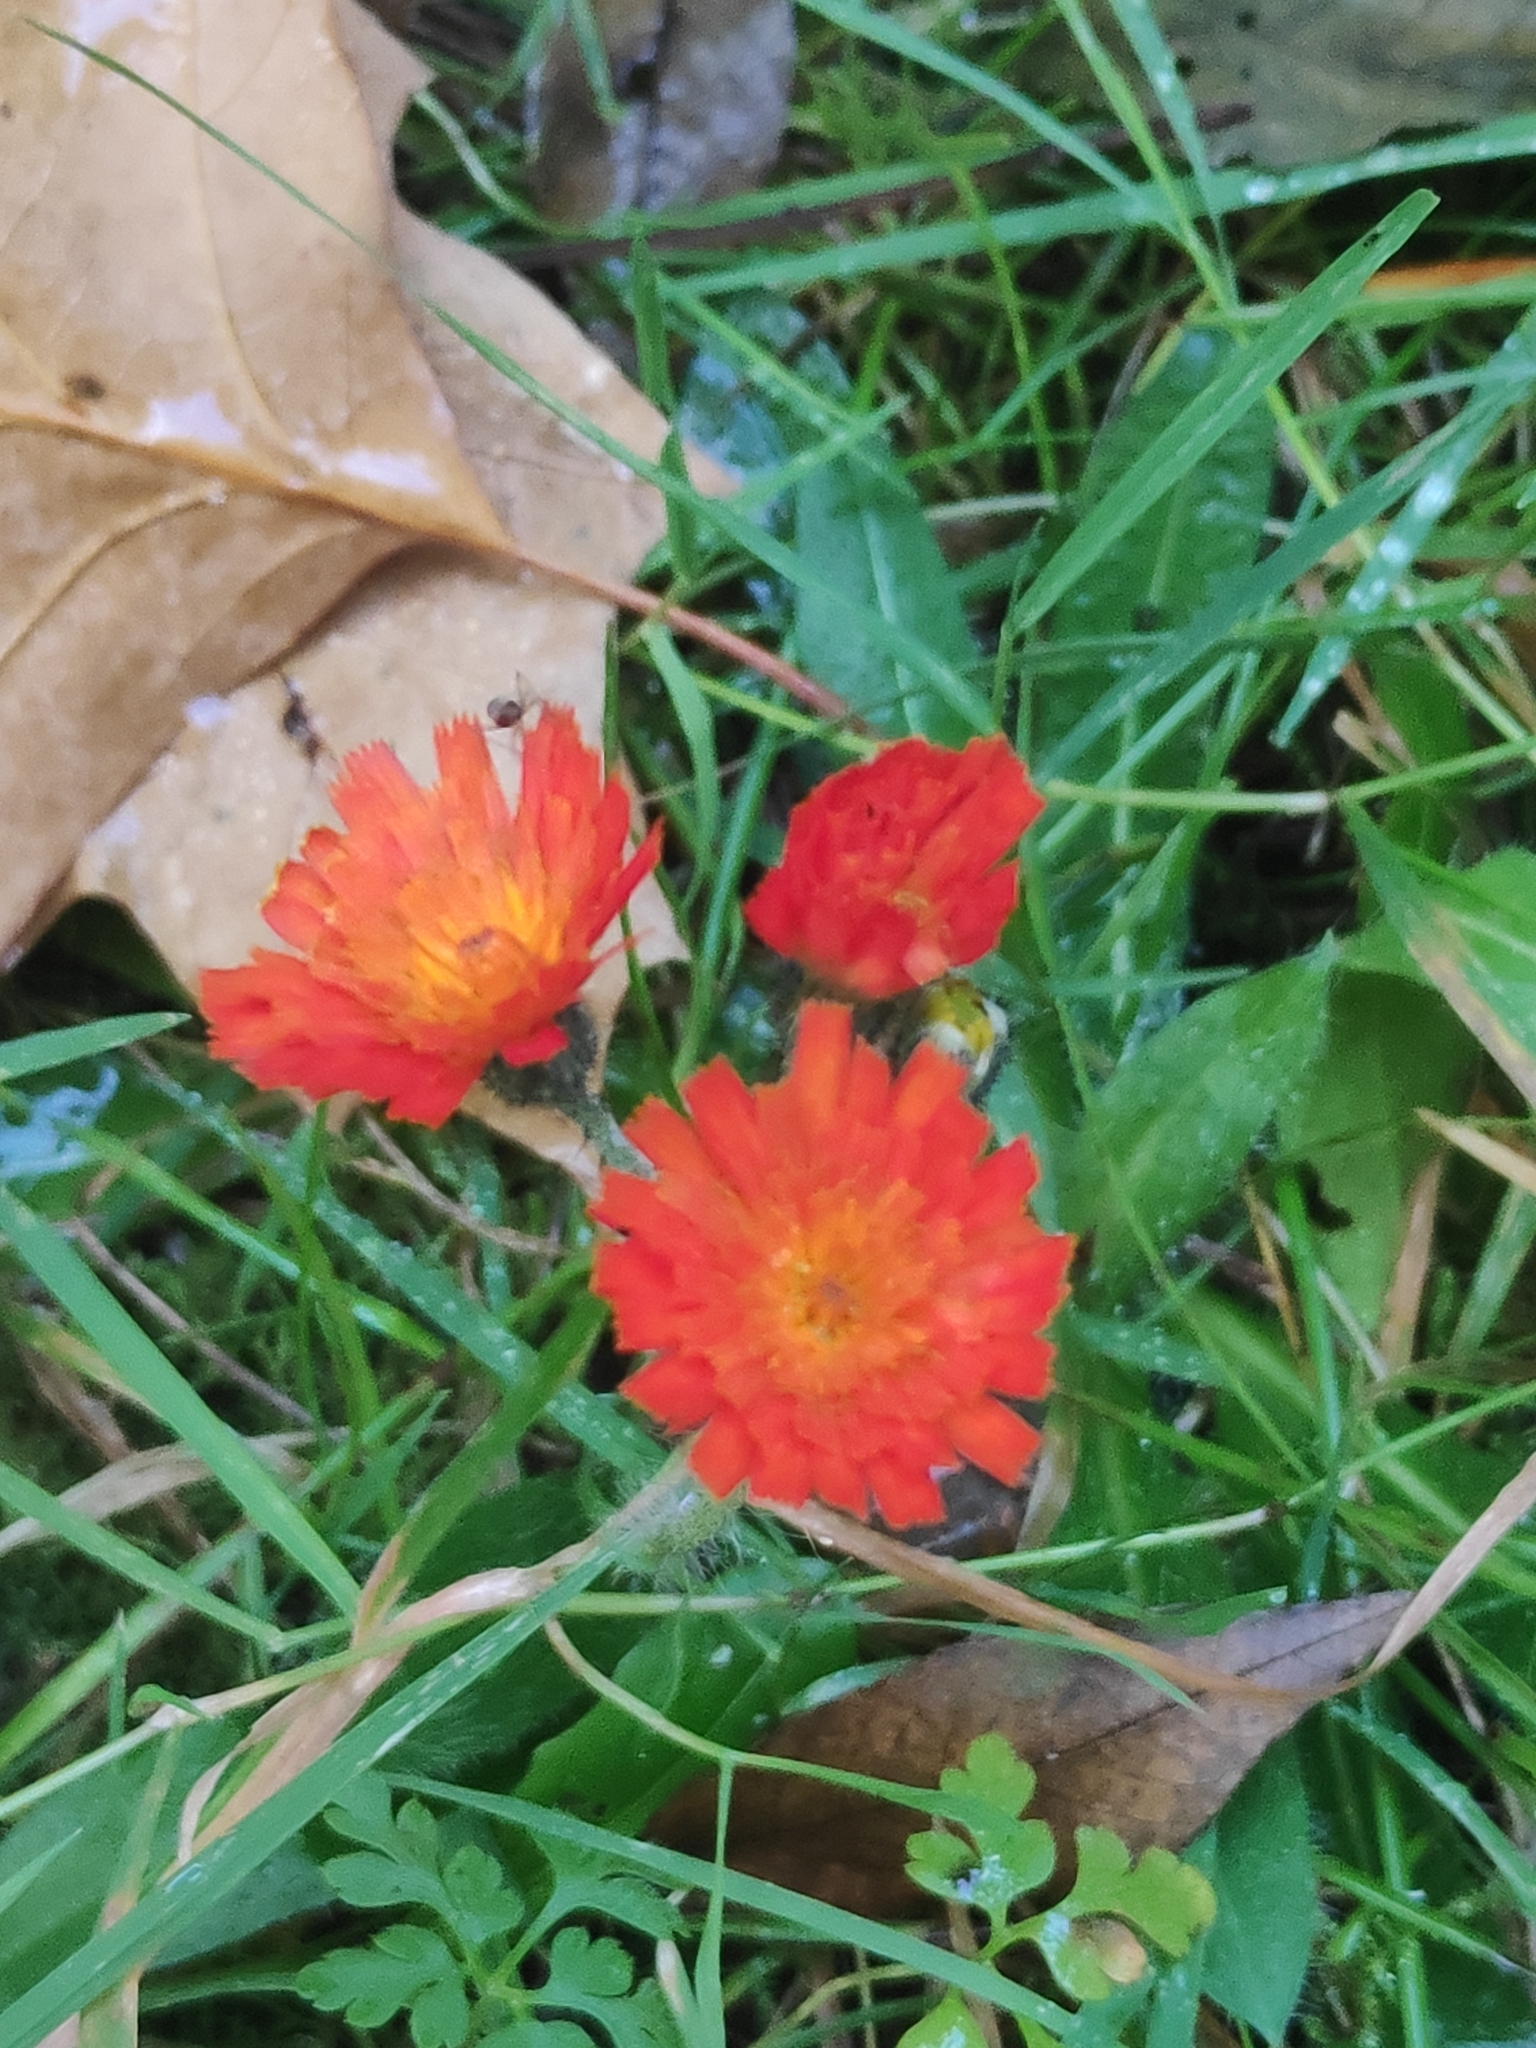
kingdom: Plantae
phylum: Tracheophyta
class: Magnoliopsida
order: Asterales
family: Asteraceae
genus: Pilosella
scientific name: Pilosella aurantiaca
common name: Fox-and-cubs
